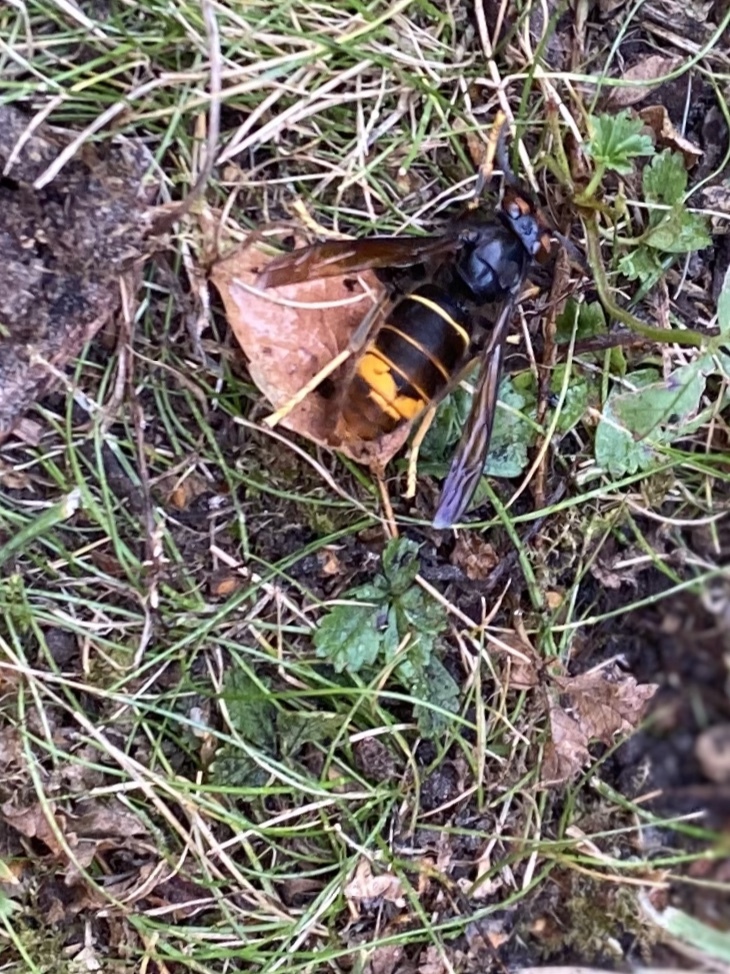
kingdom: Animalia
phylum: Arthropoda
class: Insecta
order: Hymenoptera
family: Vespidae
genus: Vespa
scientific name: Vespa velutina
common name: Asian hornet
